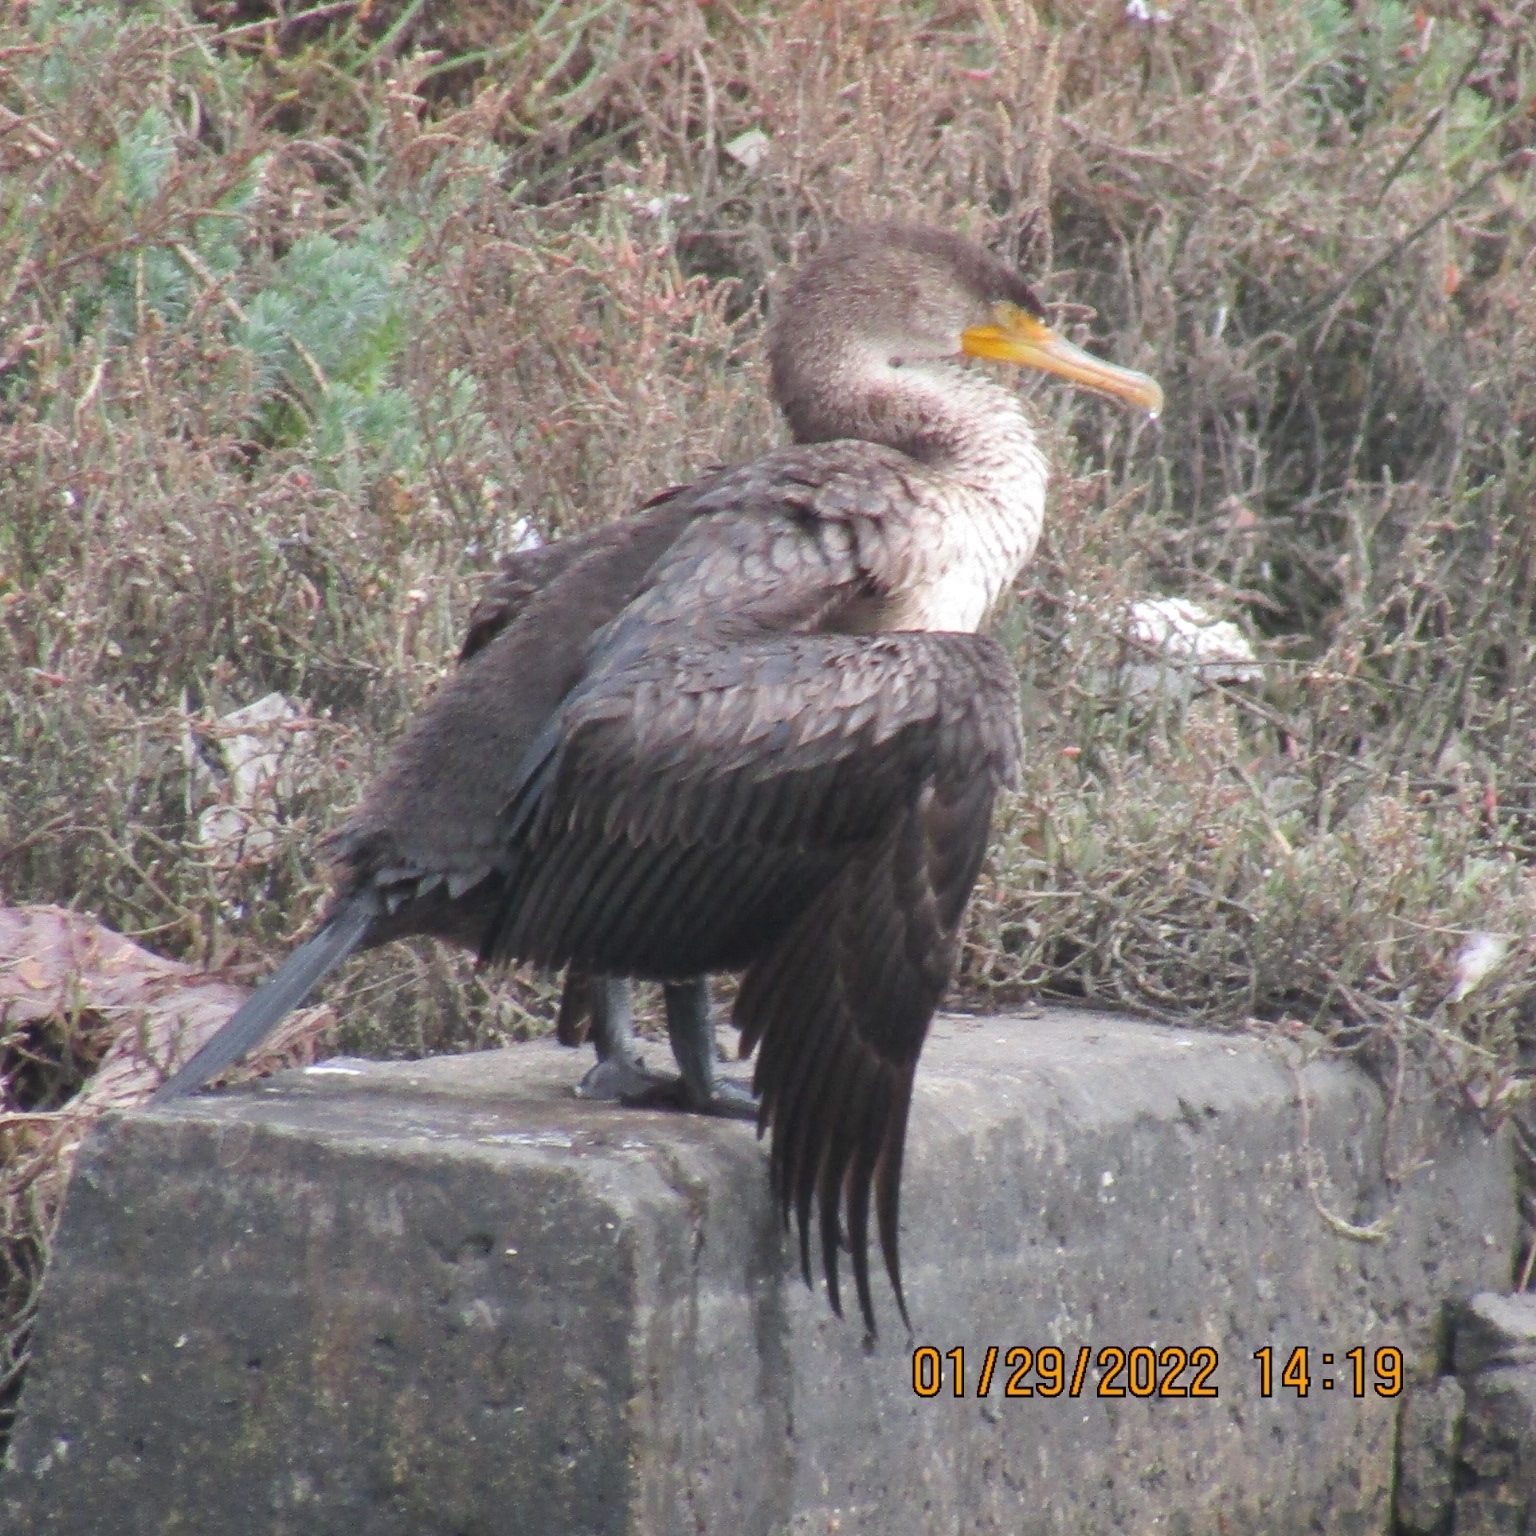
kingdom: Animalia
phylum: Chordata
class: Aves
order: Suliformes
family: Phalacrocoracidae
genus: Phalacrocorax
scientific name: Phalacrocorax auritus
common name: Double-crested cormorant
